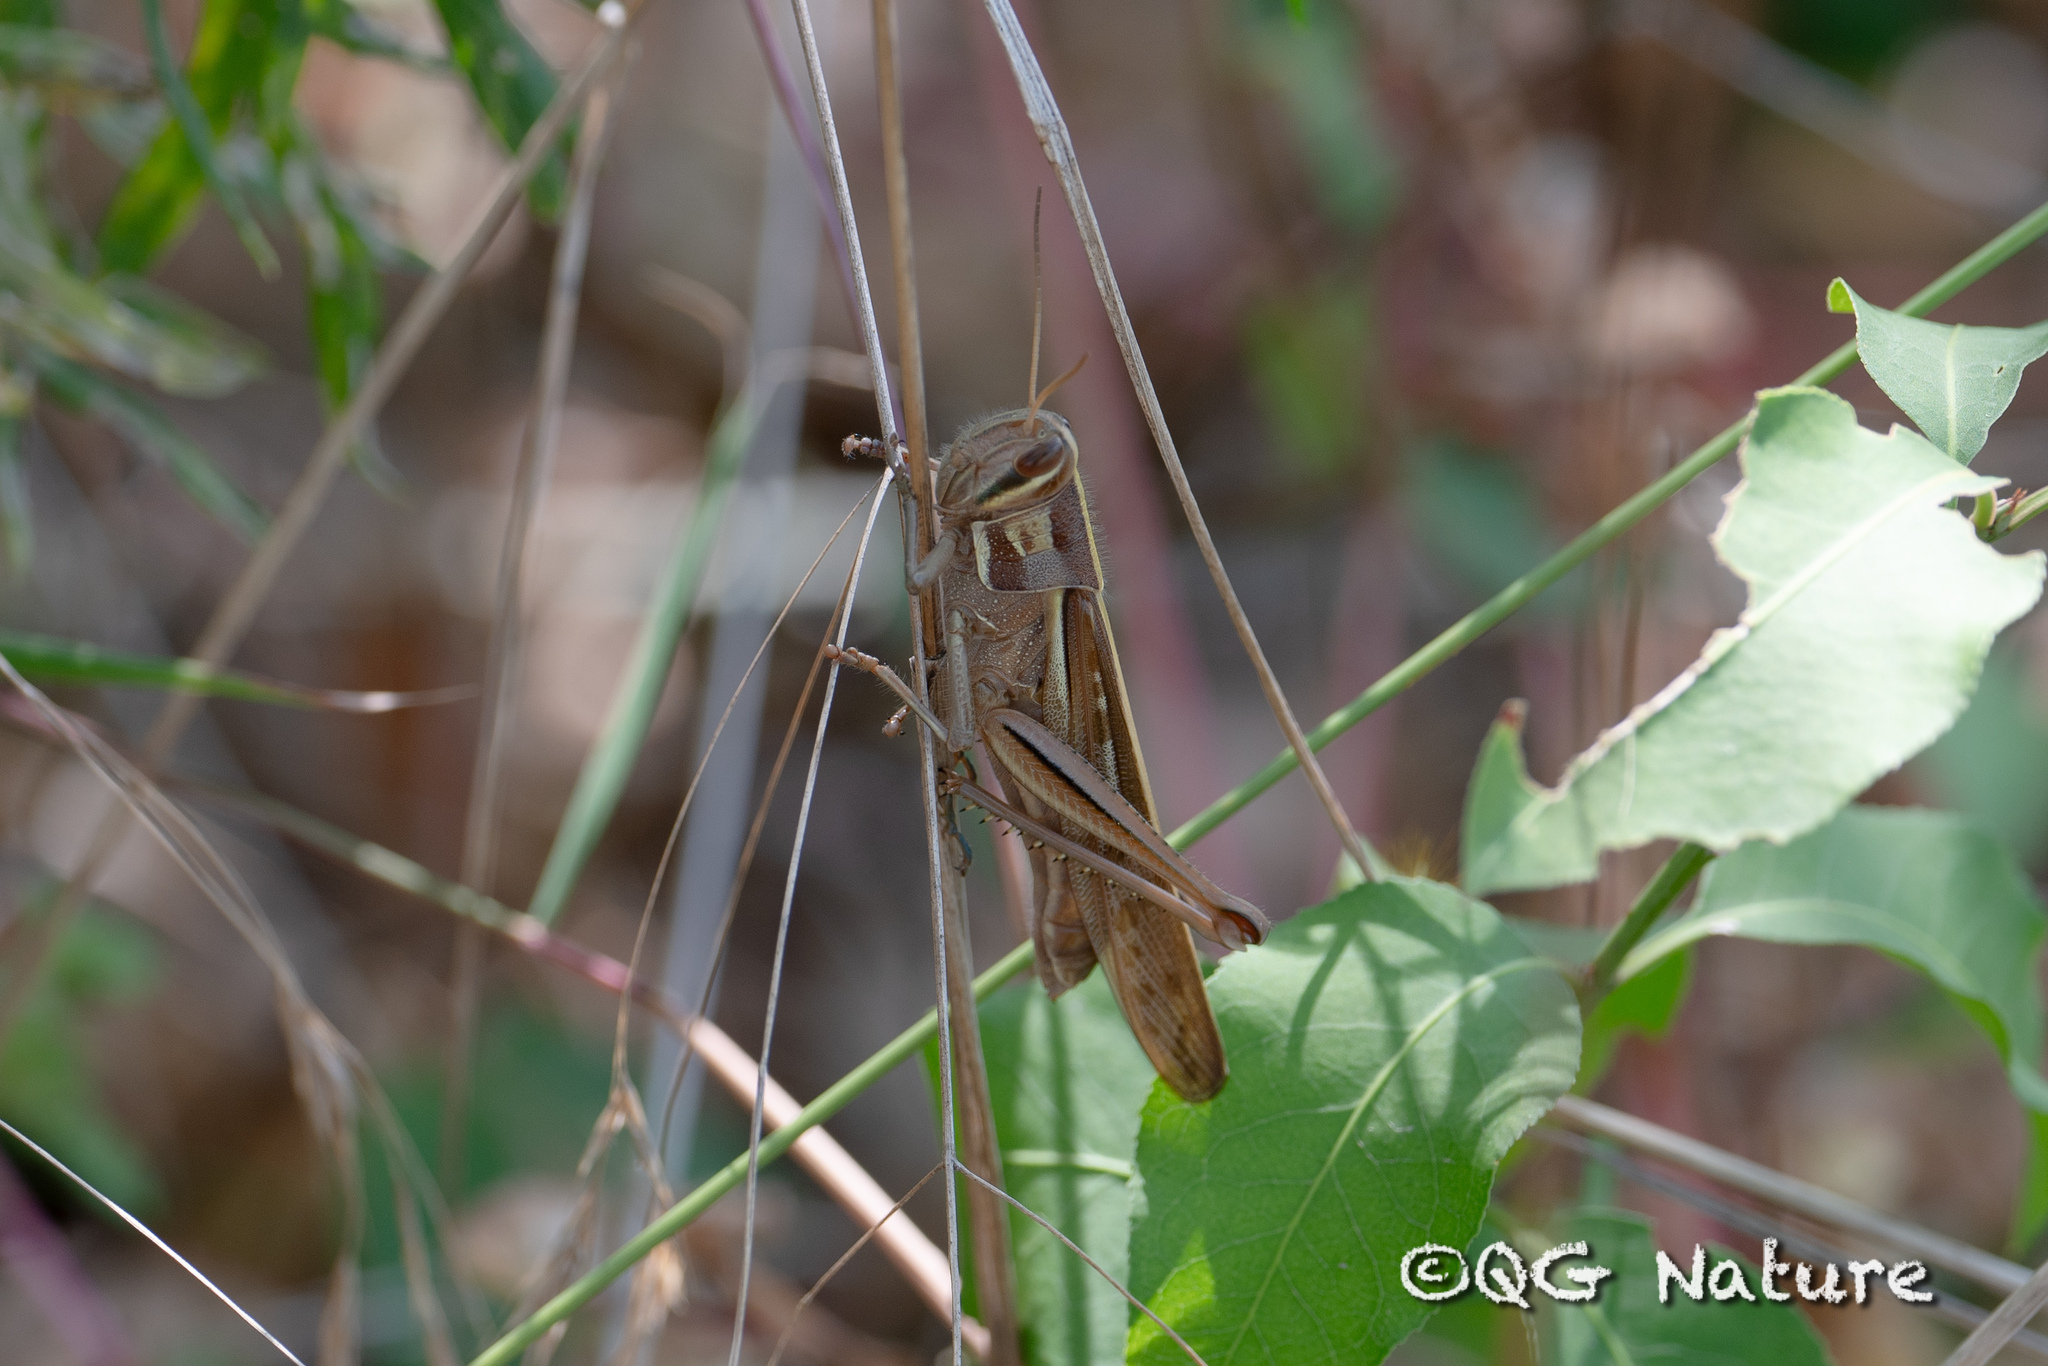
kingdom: Animalia
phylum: Arthropoda
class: Insecta
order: Orthoptera
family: Acrididae
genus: Patanga
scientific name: Patanga japonica
